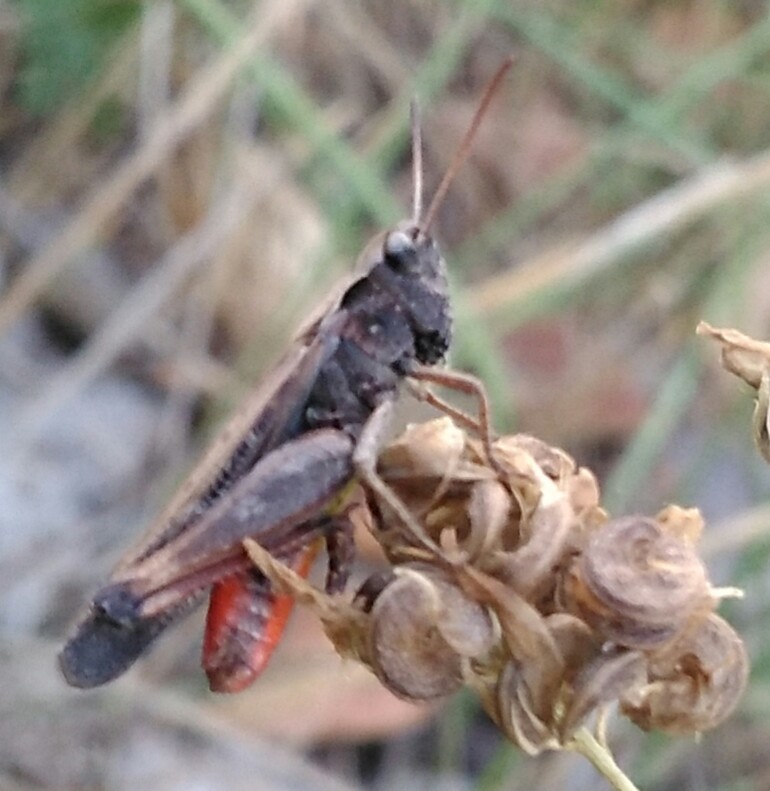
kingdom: Animalia
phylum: Arthropoda
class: Insecta
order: Orthoptera
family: Acrididae
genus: Omocestus
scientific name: Omocestus rufipes
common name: Woodland grasshopper
